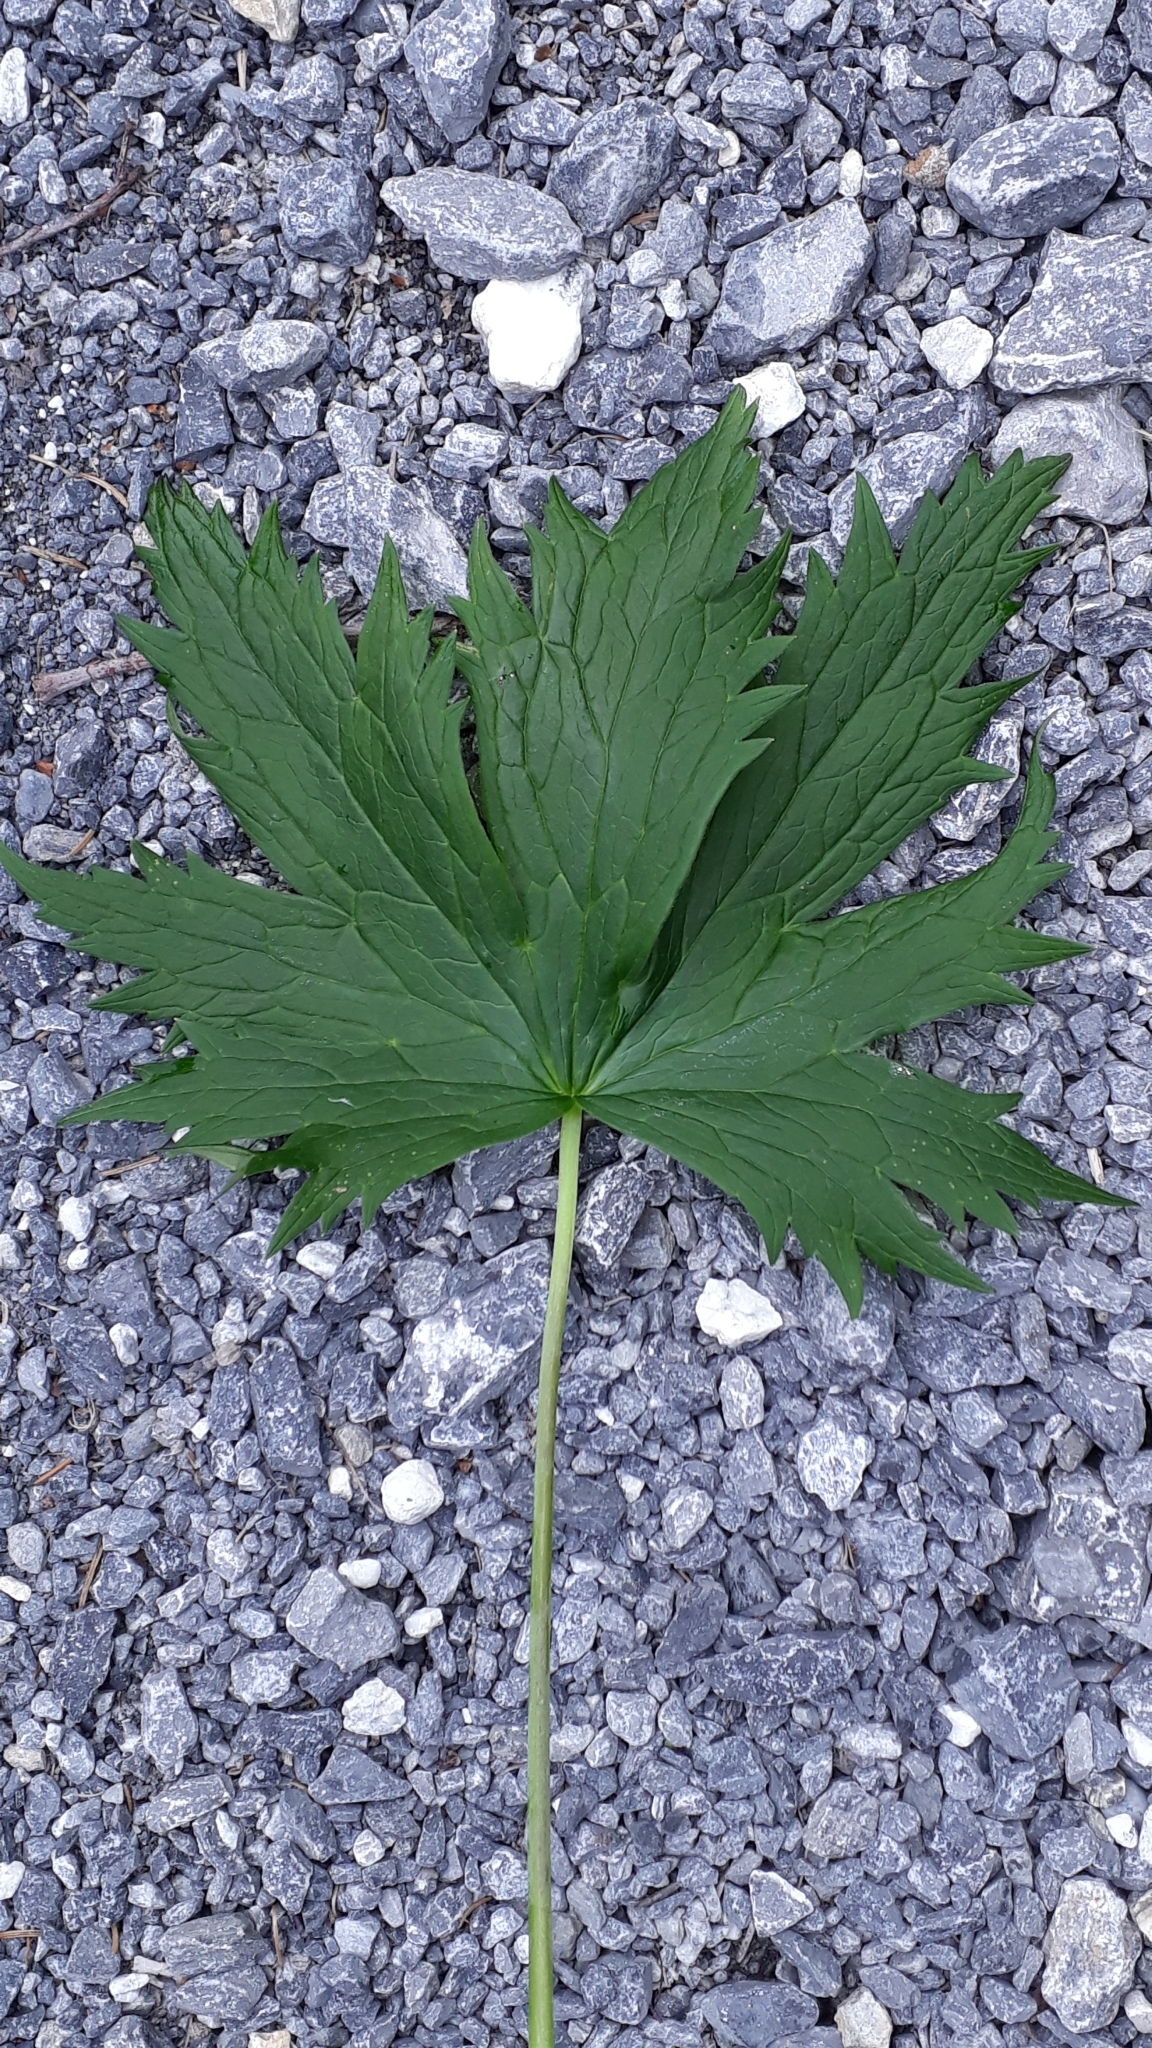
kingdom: Plantae
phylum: Tracheophyta
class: Magnoliopsida
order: Ranunculales
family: Ranunculaceae
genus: Delphinium
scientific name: Delphinium elatum
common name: Candle larkspur
